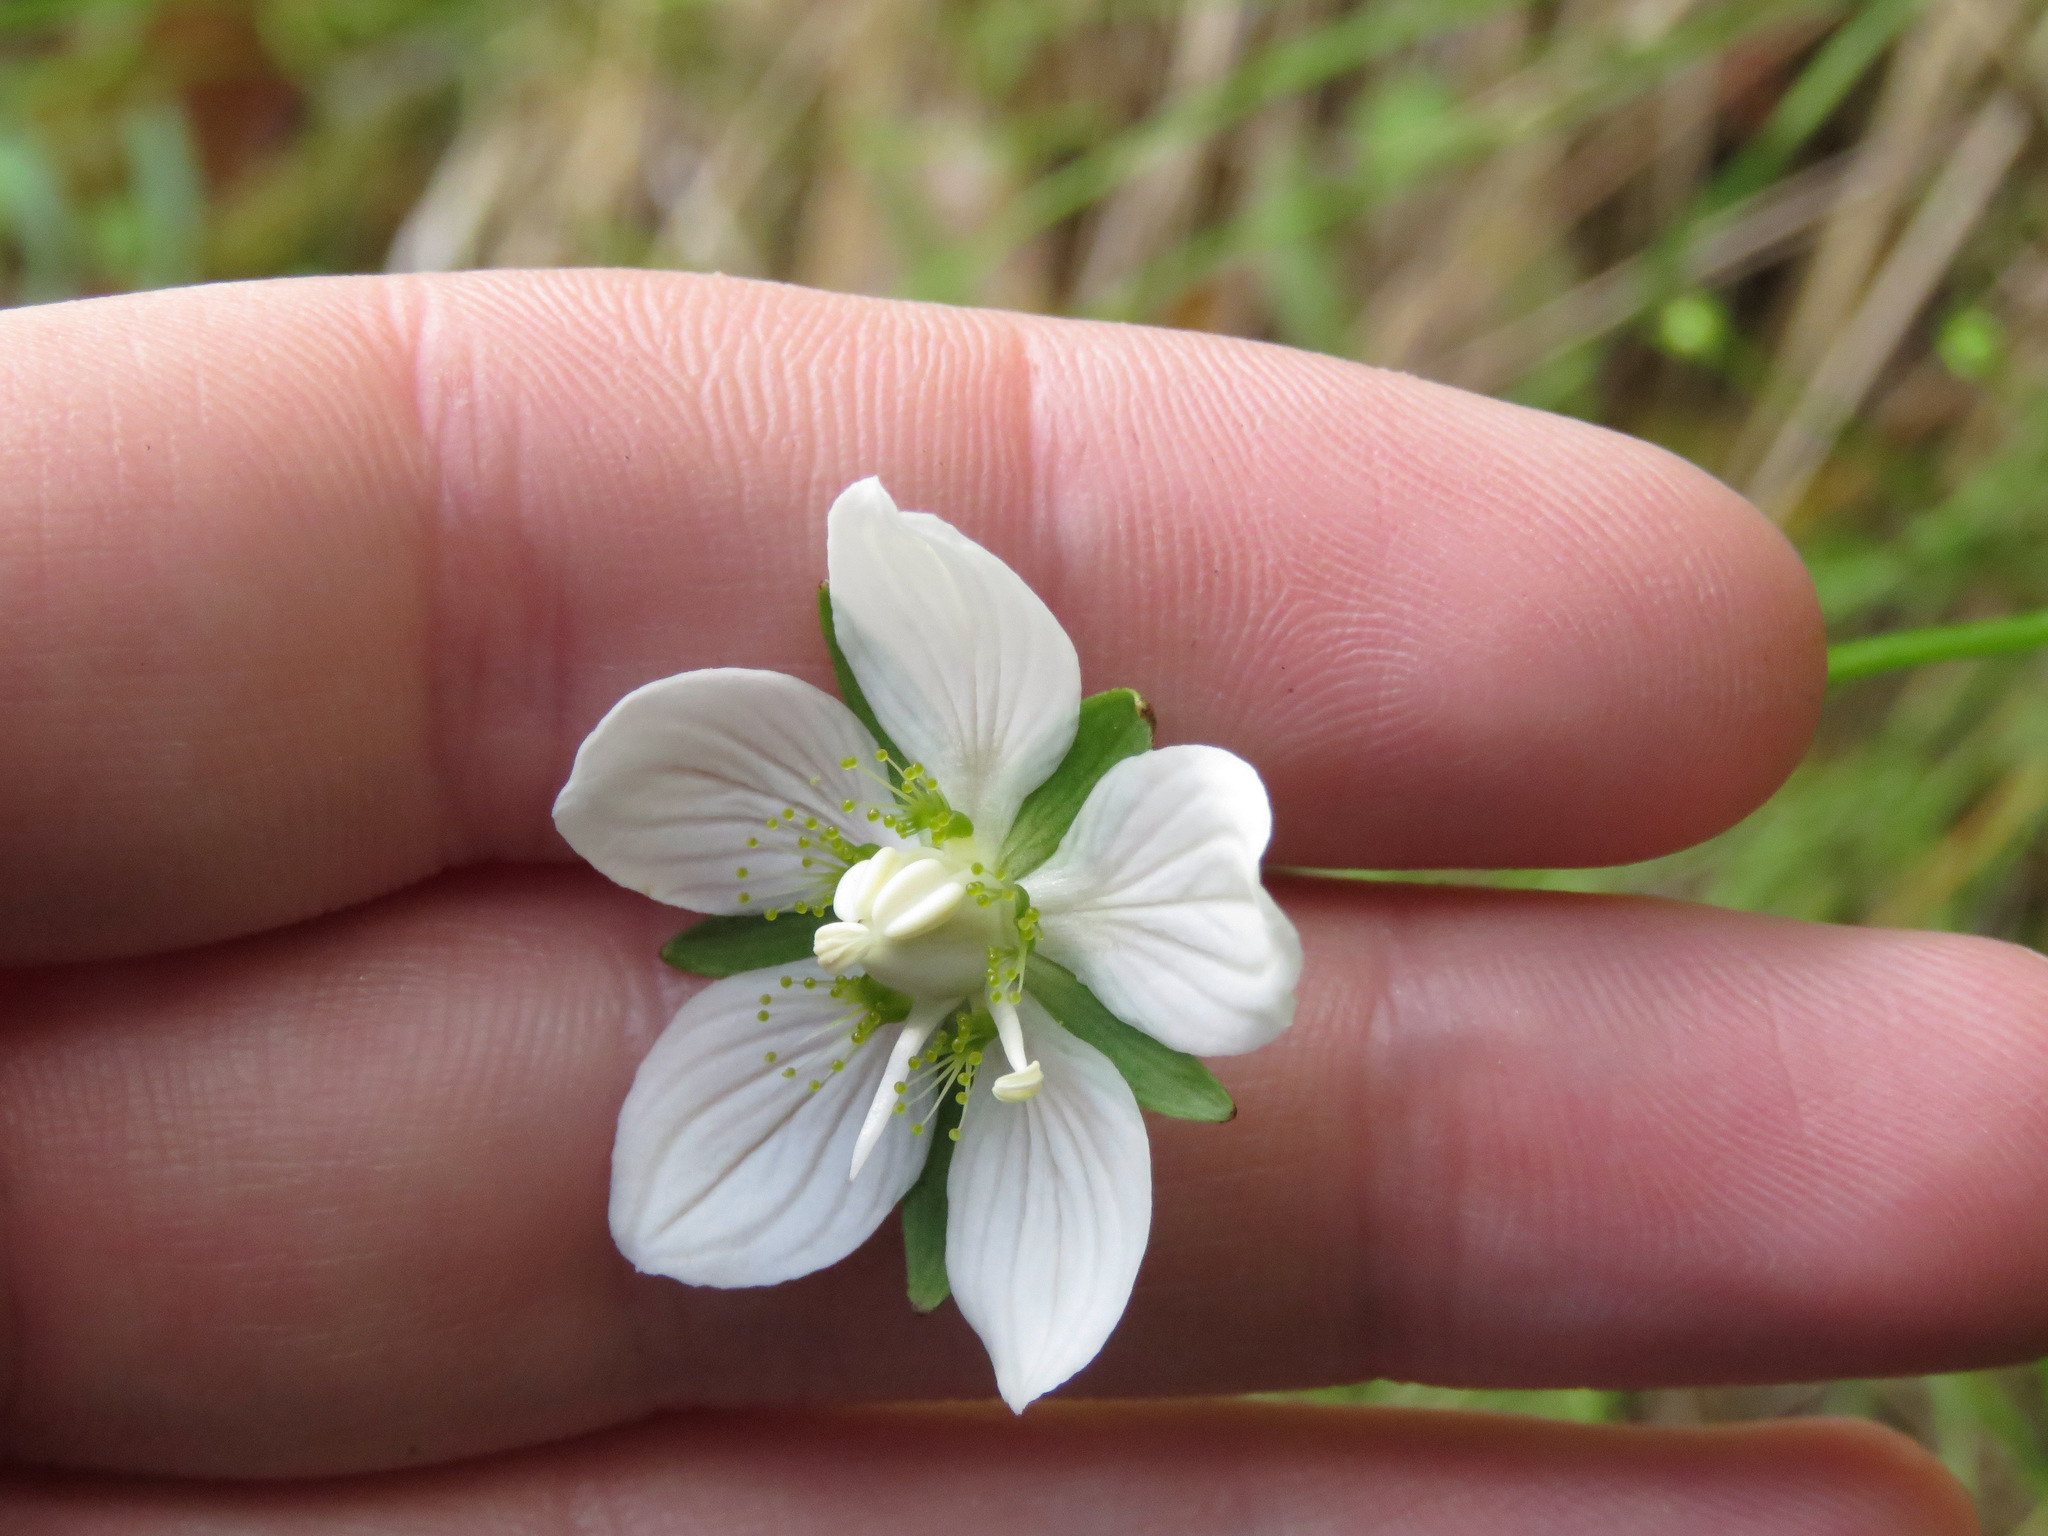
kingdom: Plantae
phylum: Tracheophyta
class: Magnoliopsida
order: Celastrales
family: Parnassiaceae
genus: Parnassia
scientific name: Parnassia palustris
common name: Grass-of-parnassus
